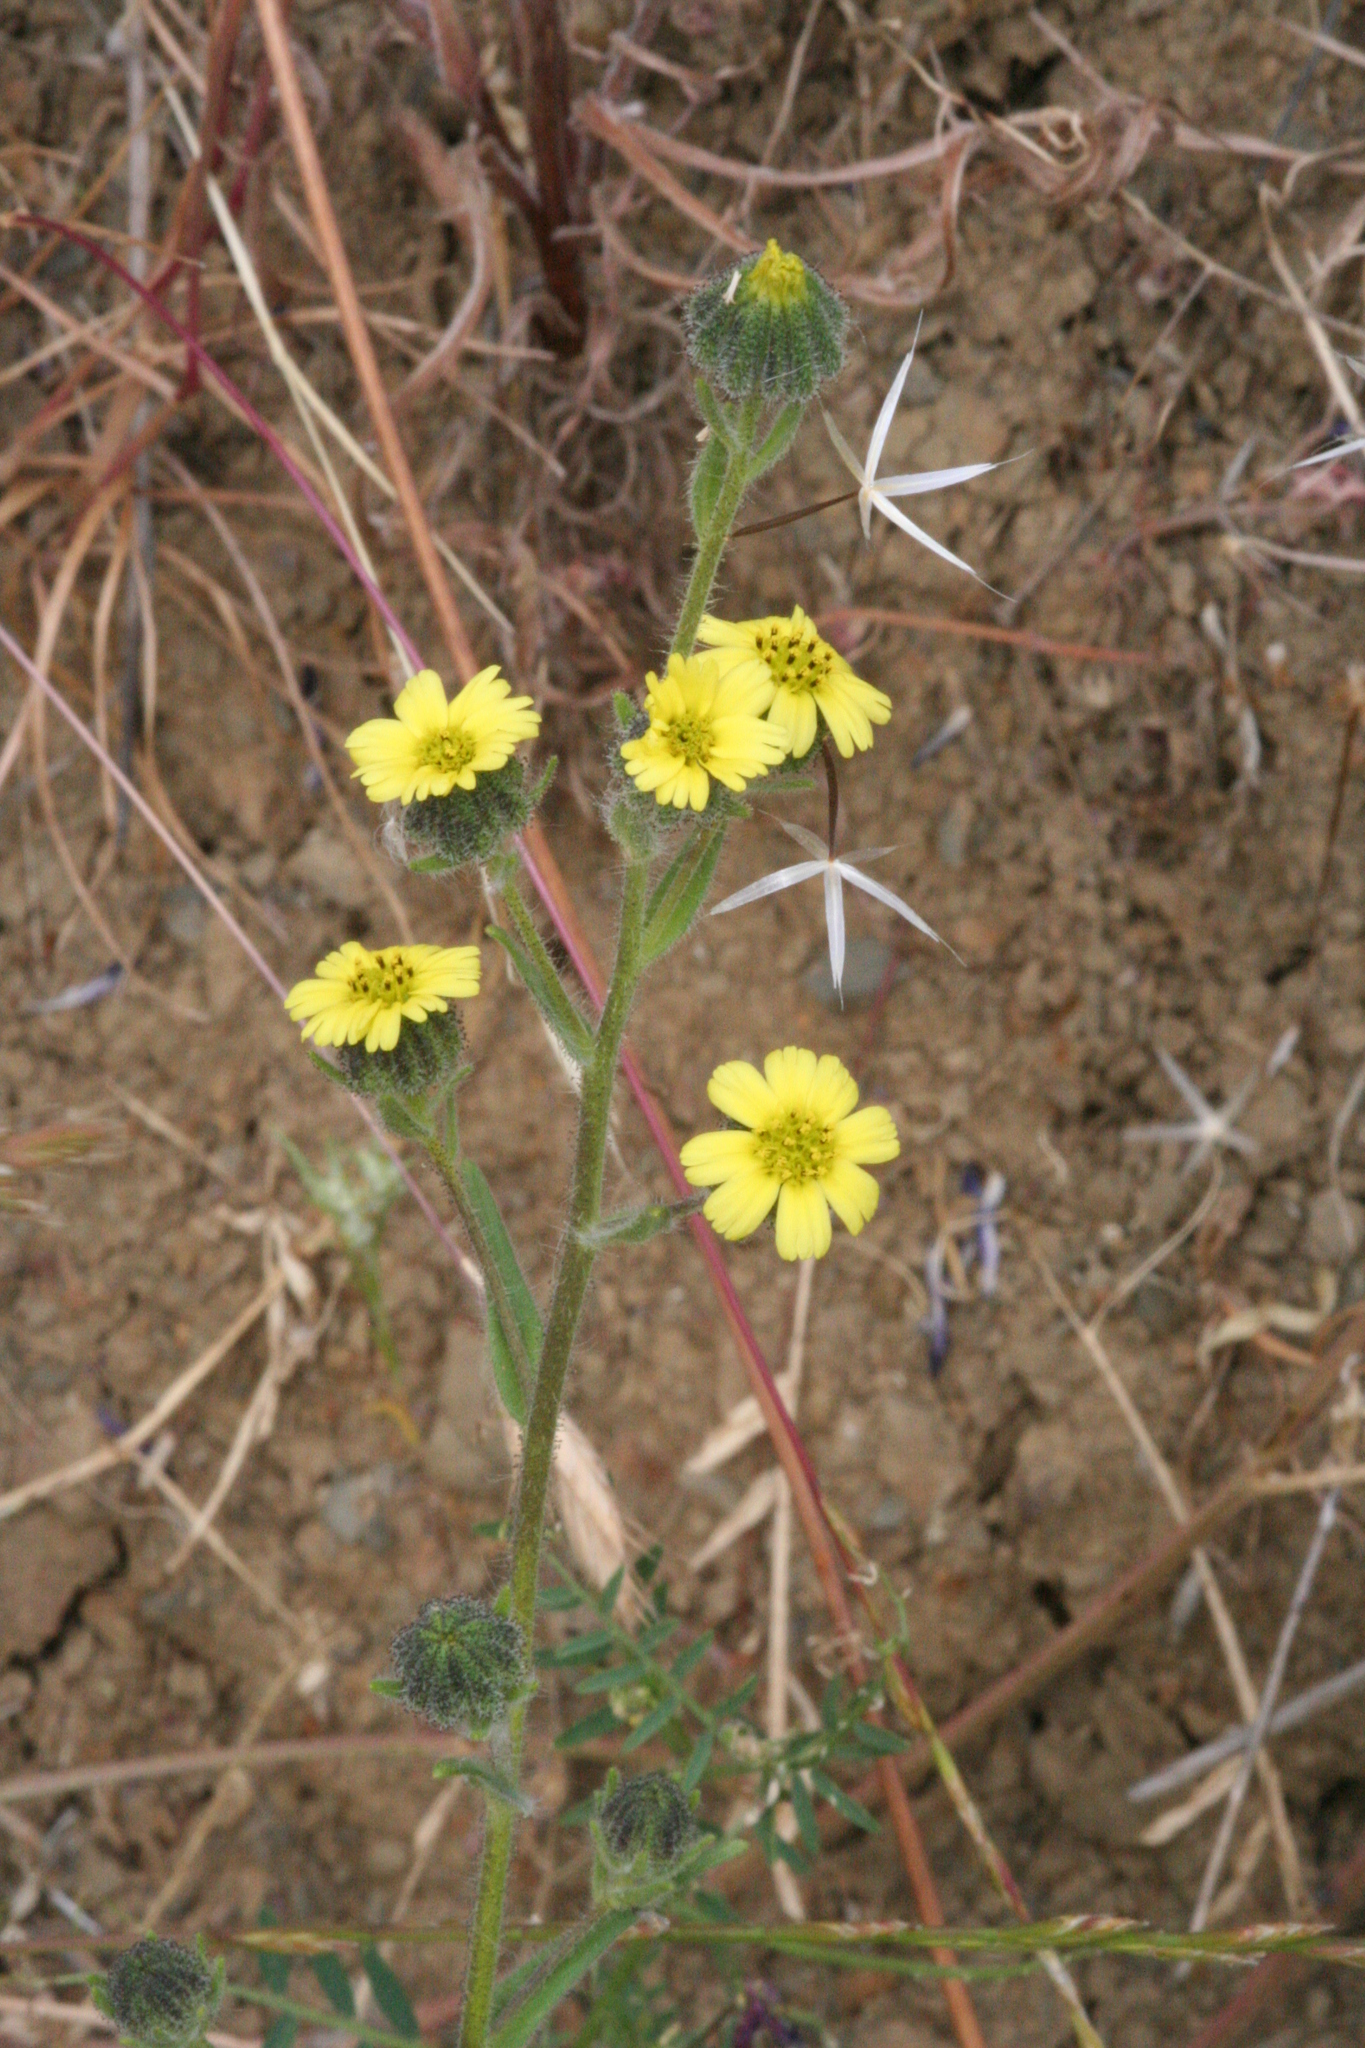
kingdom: Plantae
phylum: Tracheophyta
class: Magnoliopsida
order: Asterales
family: Asteraceae
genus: Madia
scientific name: Madia gracilis
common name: Grassy tarweed
